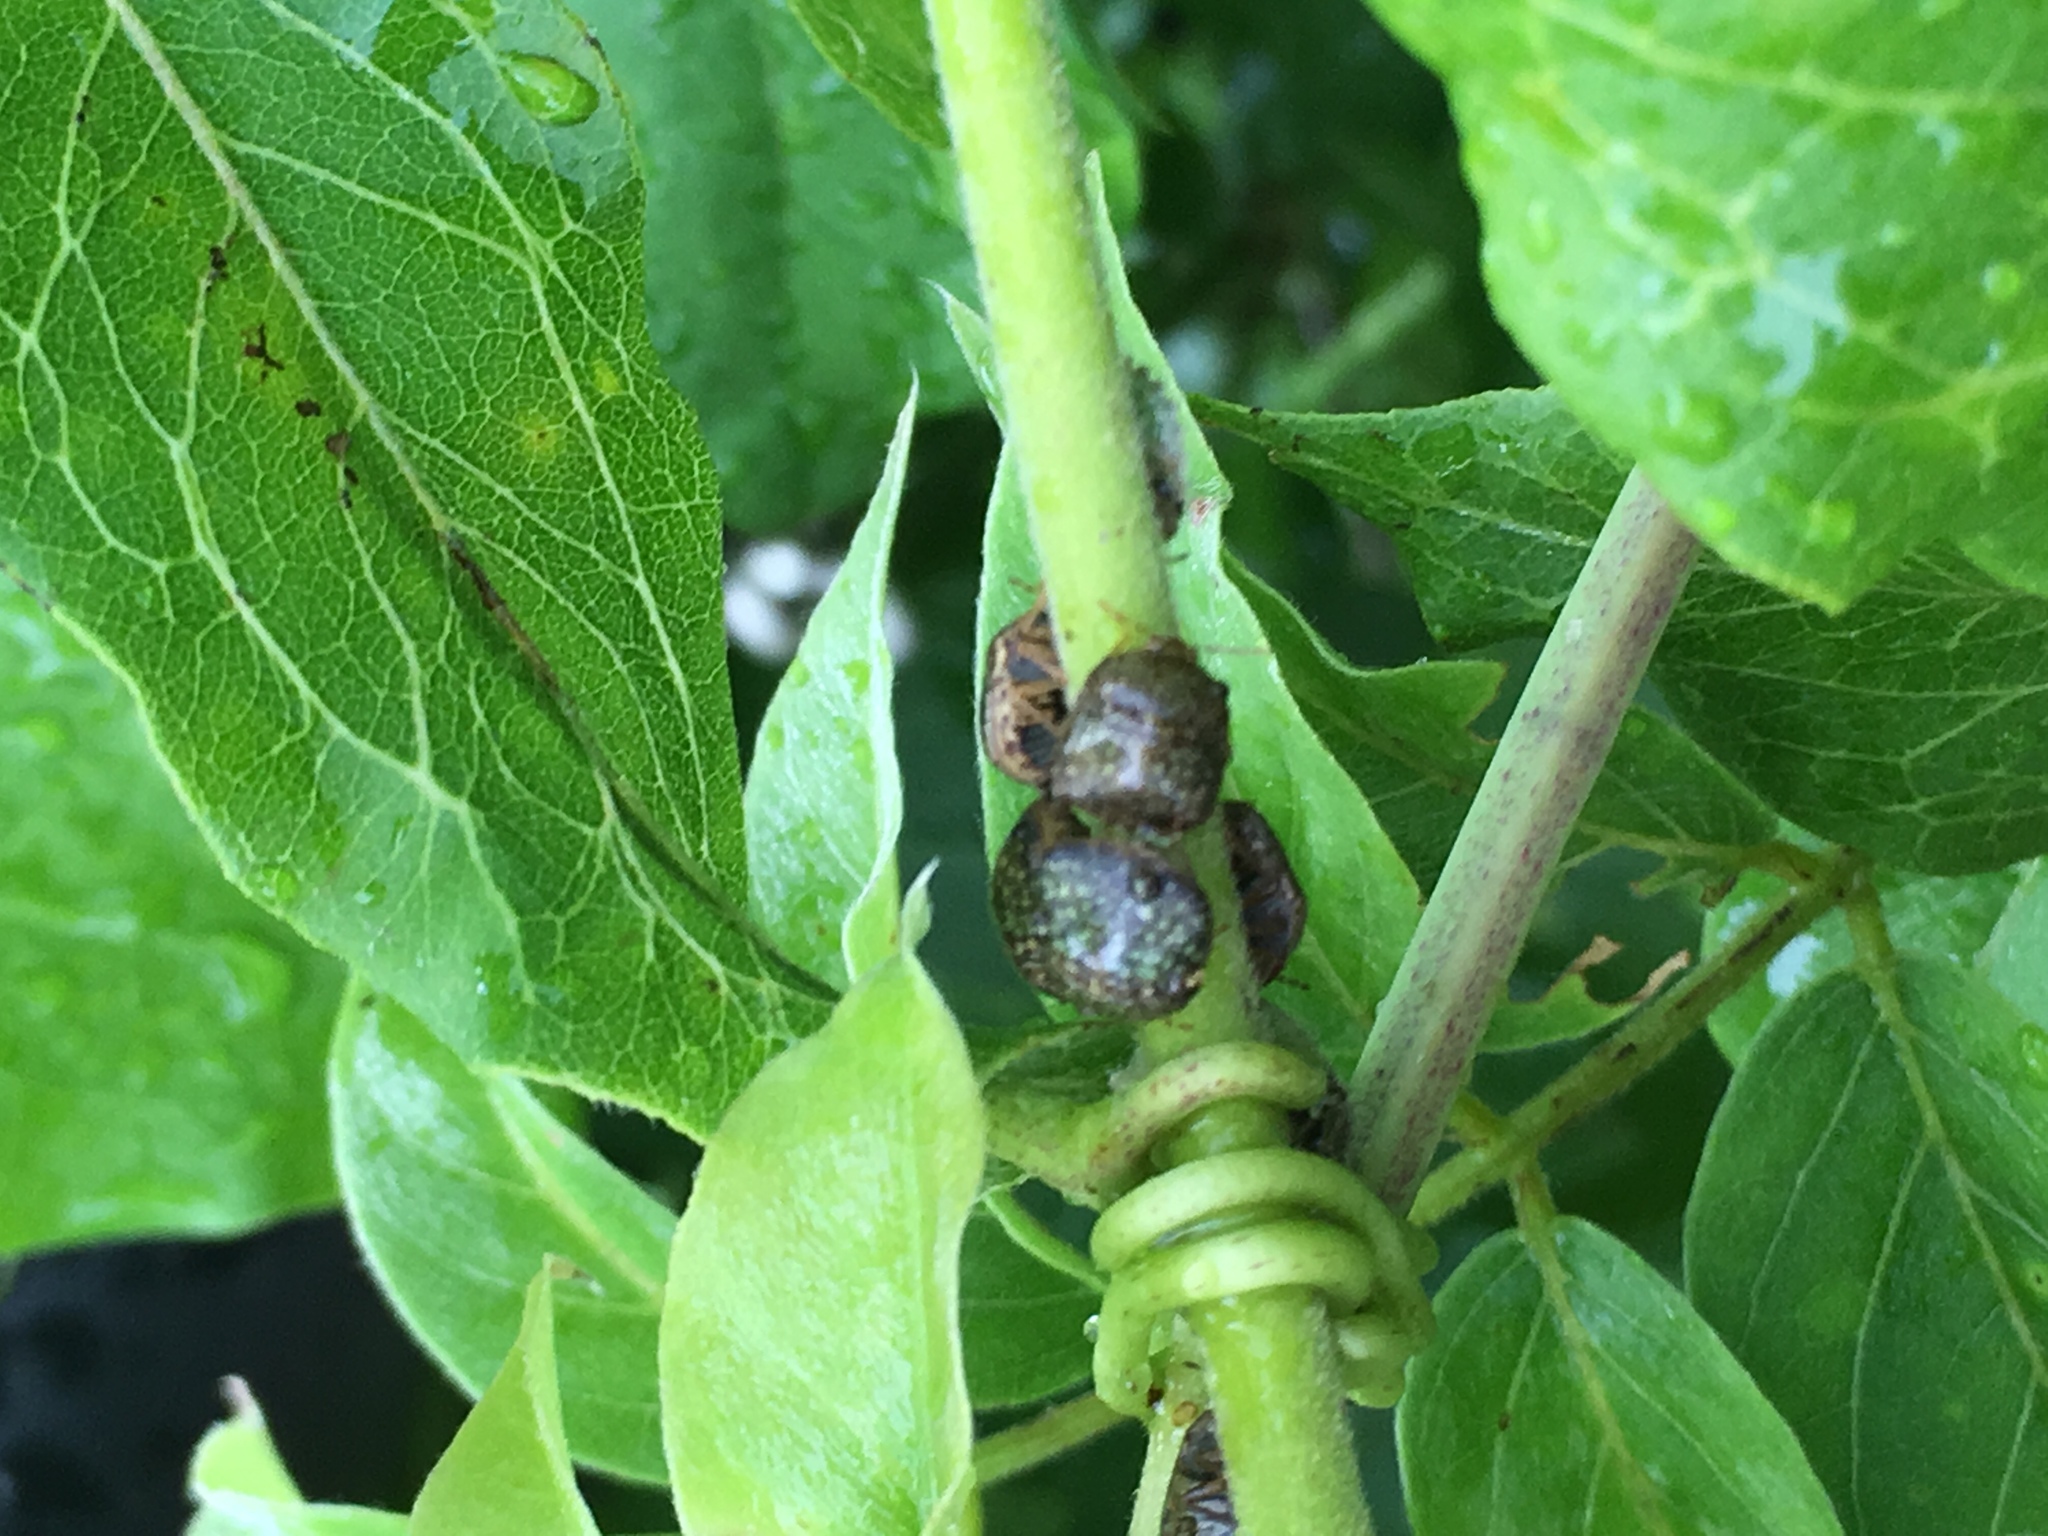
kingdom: Animalia
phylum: Arthropoda
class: Insecta
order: Hemiptera
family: Plataspidae
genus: Megacopta
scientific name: Megacopta cribraria
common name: Bean plataspid
